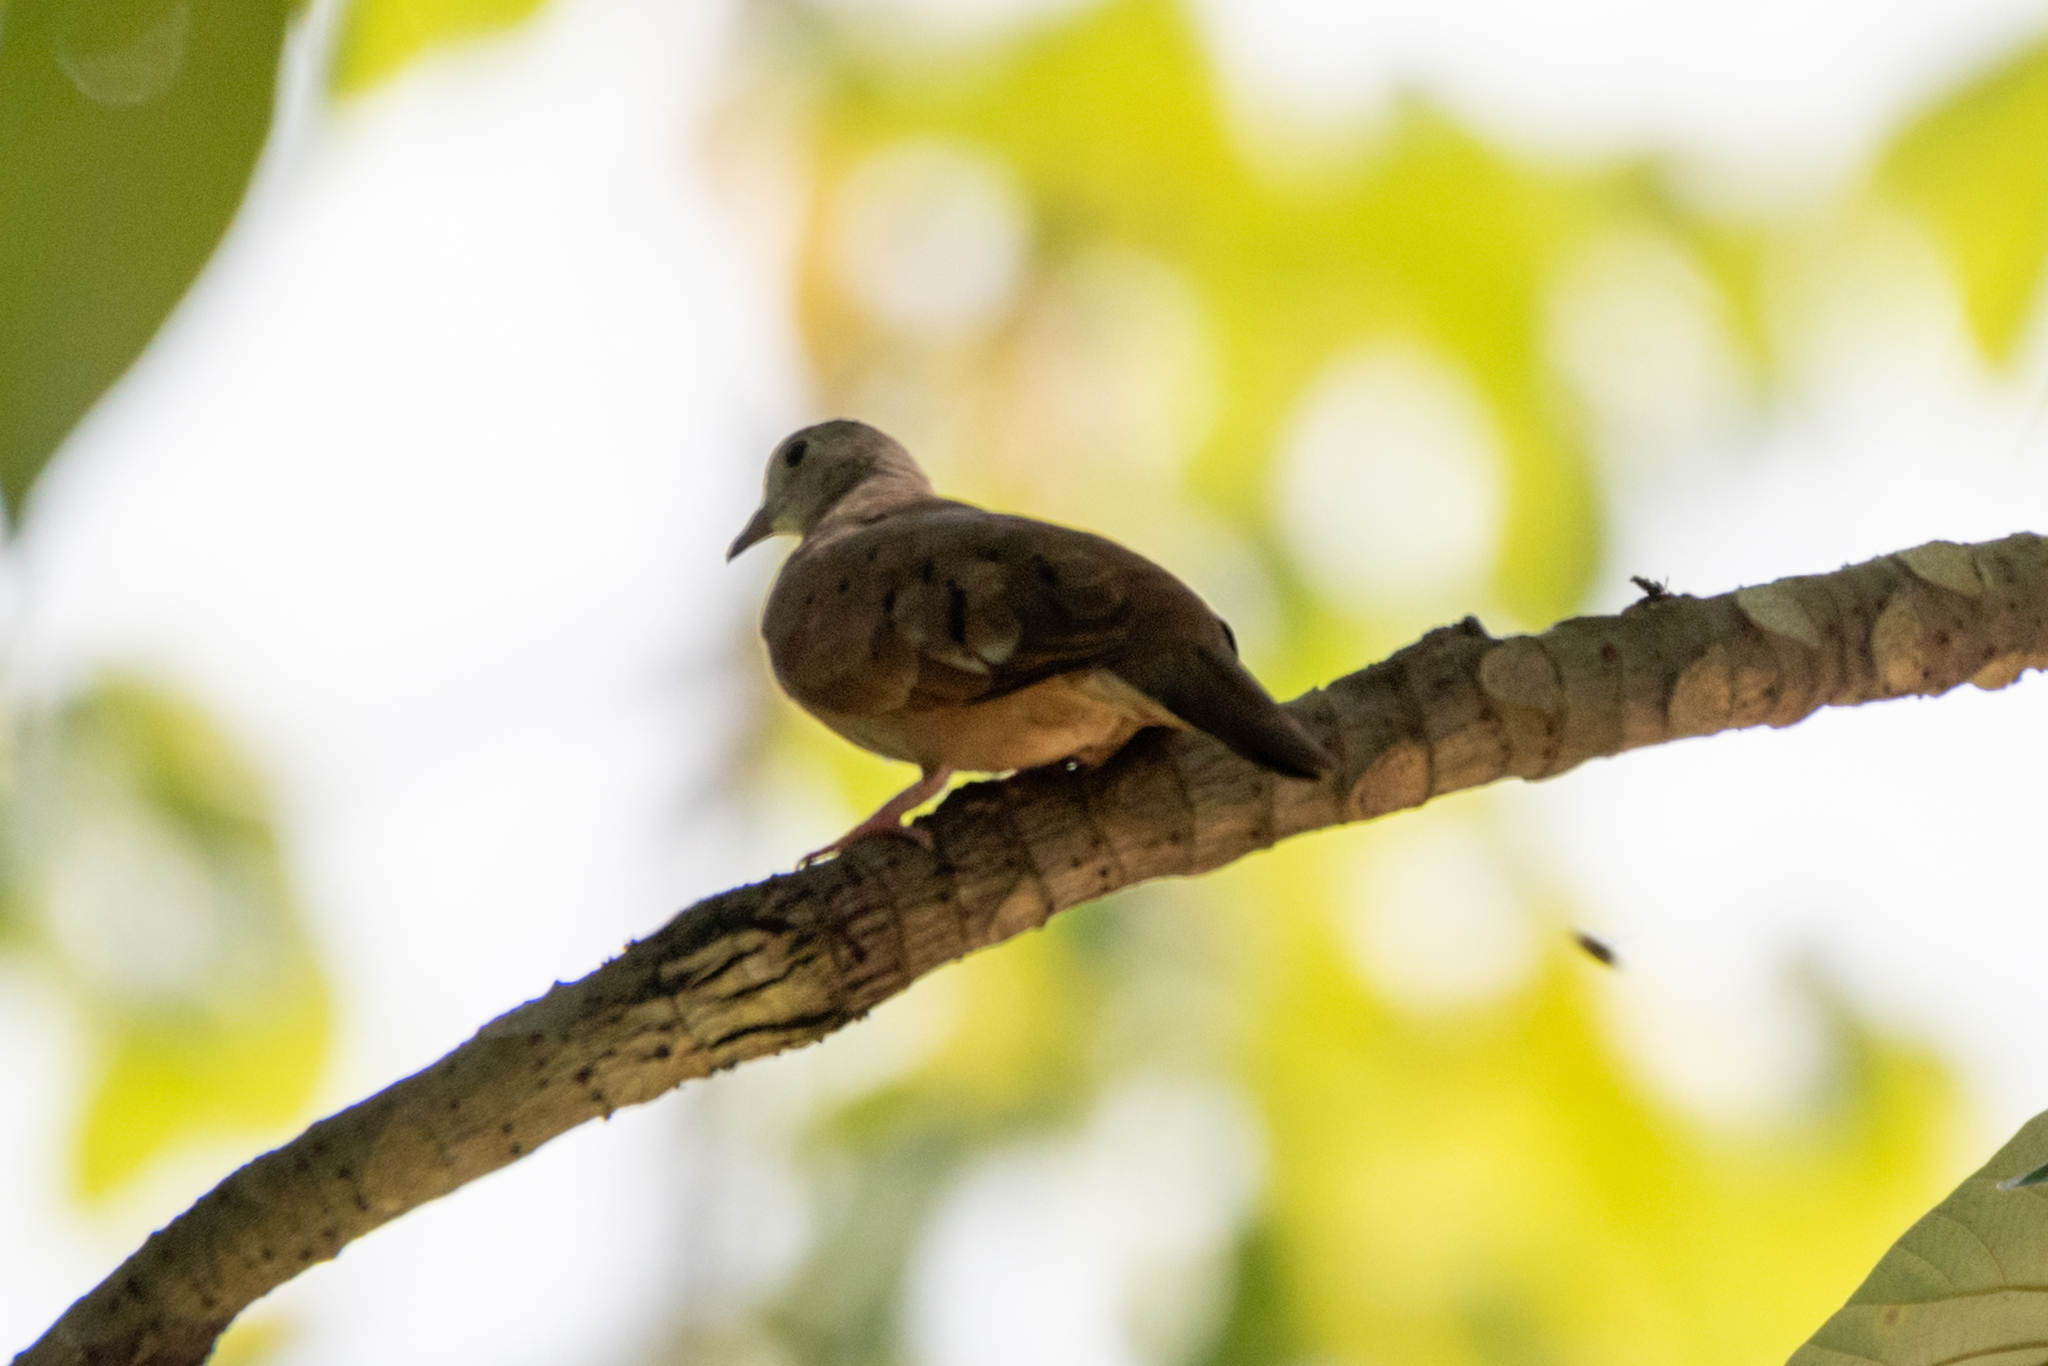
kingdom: Animalia
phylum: Chordata
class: Aves
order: Columbiformes
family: Columbidae
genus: Columbina
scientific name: Columbina talpacoti
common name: Ruddy ground dove
